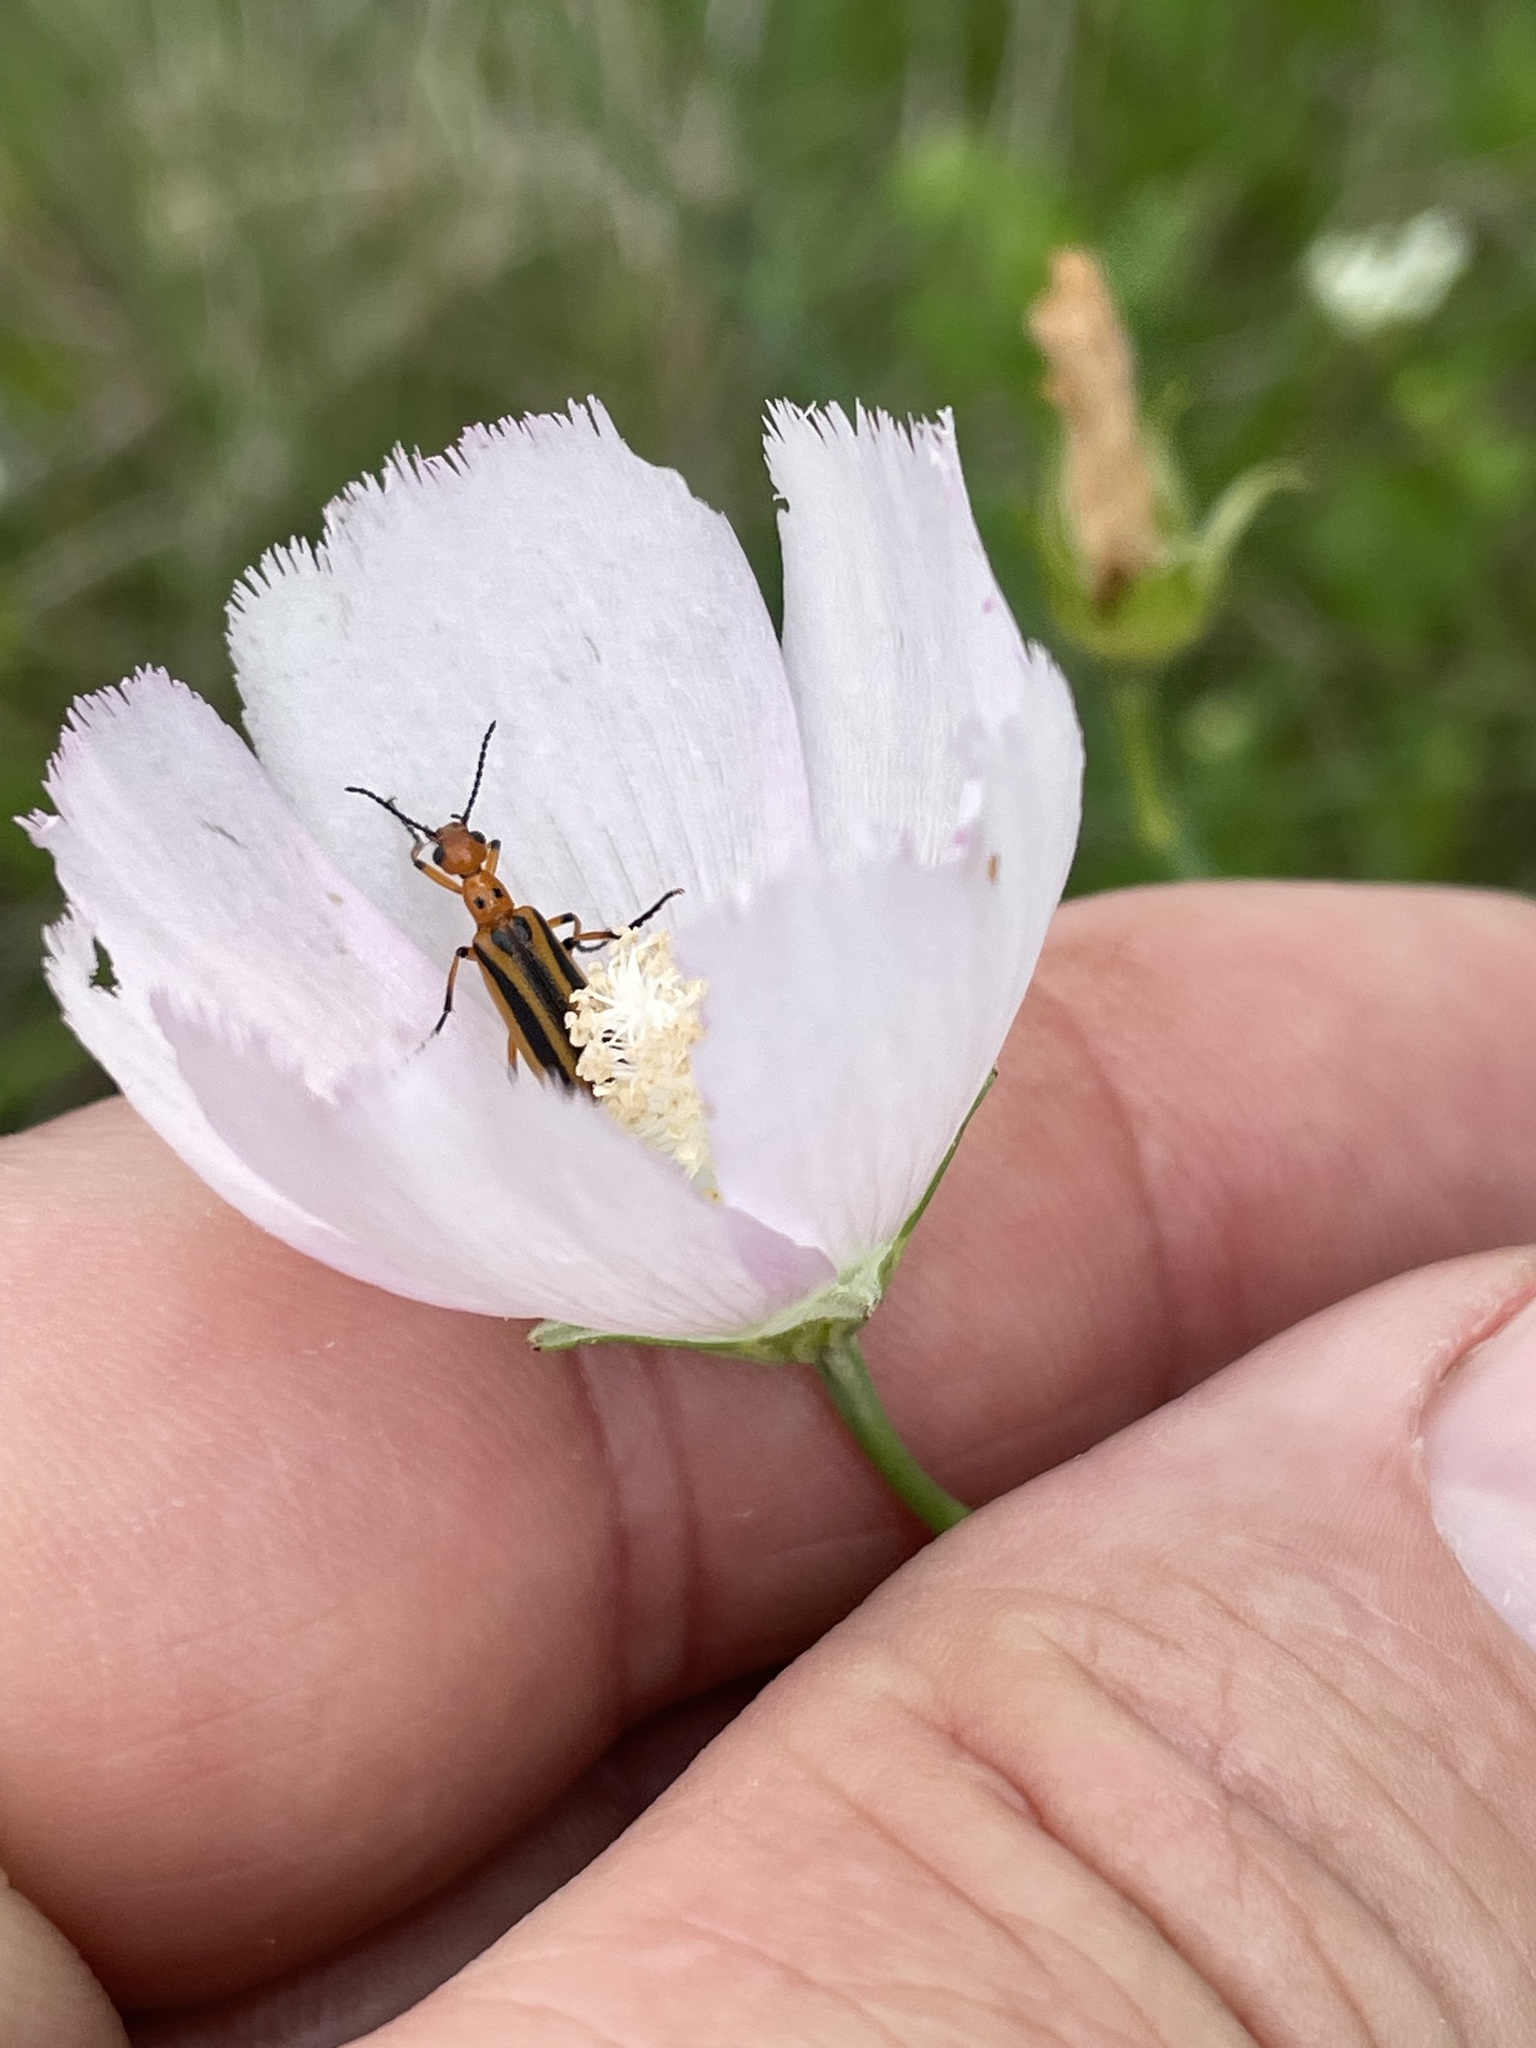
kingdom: Animalia
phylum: Arthropoda
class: Insecta
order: Coleoptera
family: Meloidae
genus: Pyrota
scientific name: Pyrota discoidea
